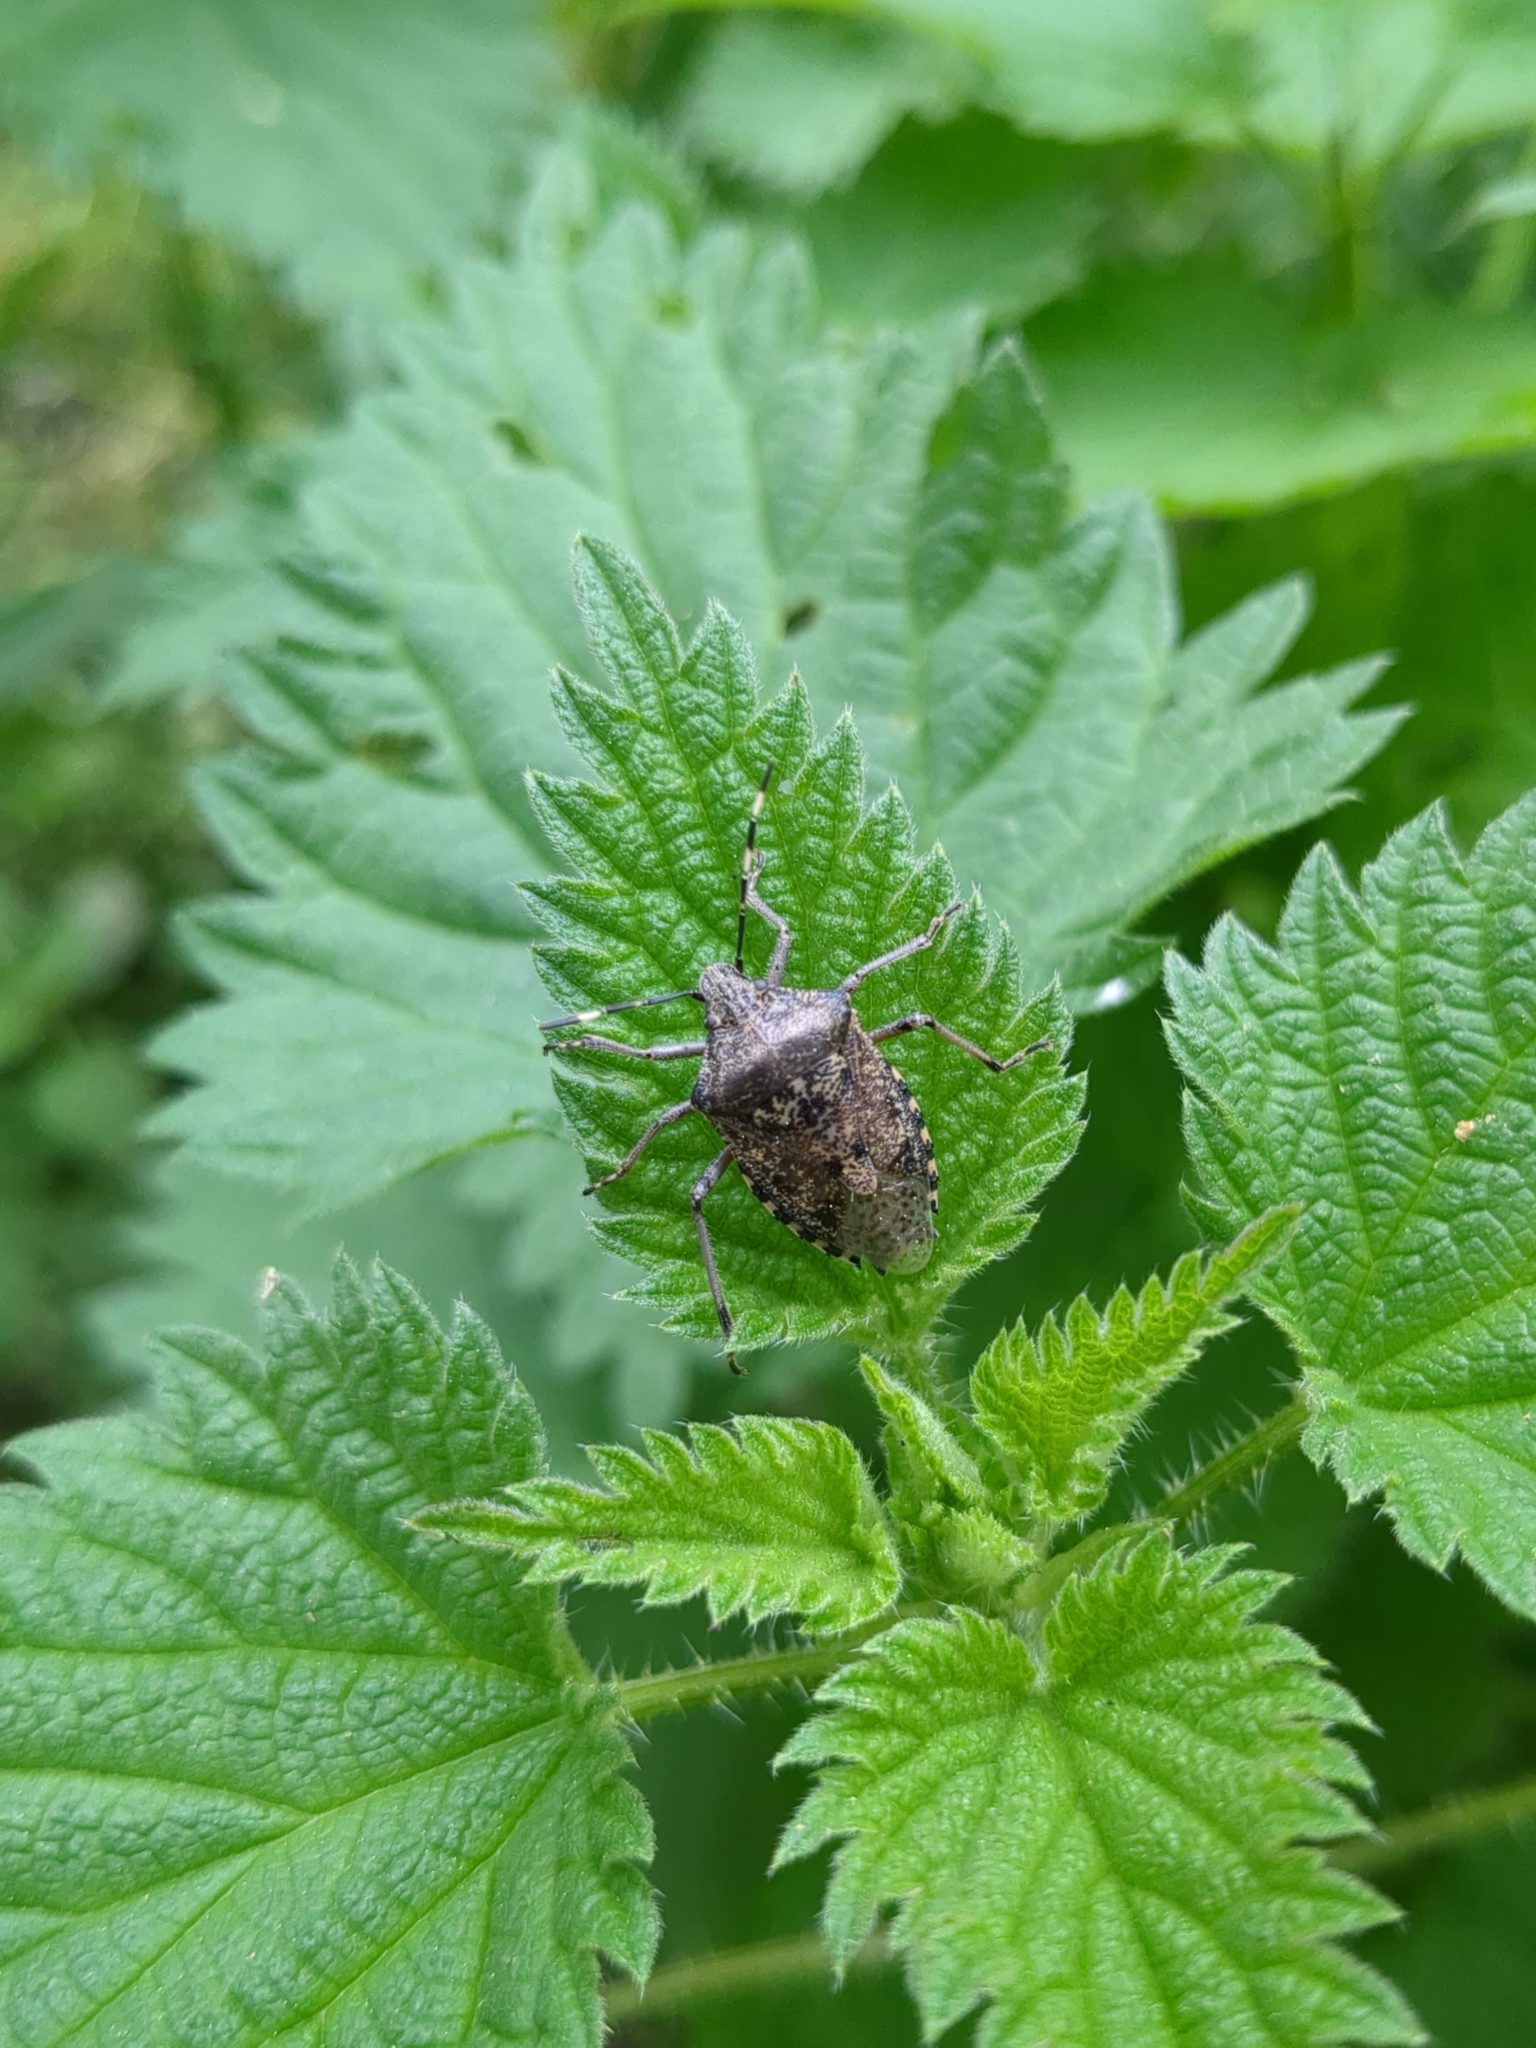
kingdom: Animalia
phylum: Arthropoda
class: Insecta
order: Hemiptera
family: Pentatomidae
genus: Rhaphigaster
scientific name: Rhaphigaster nebulosa
